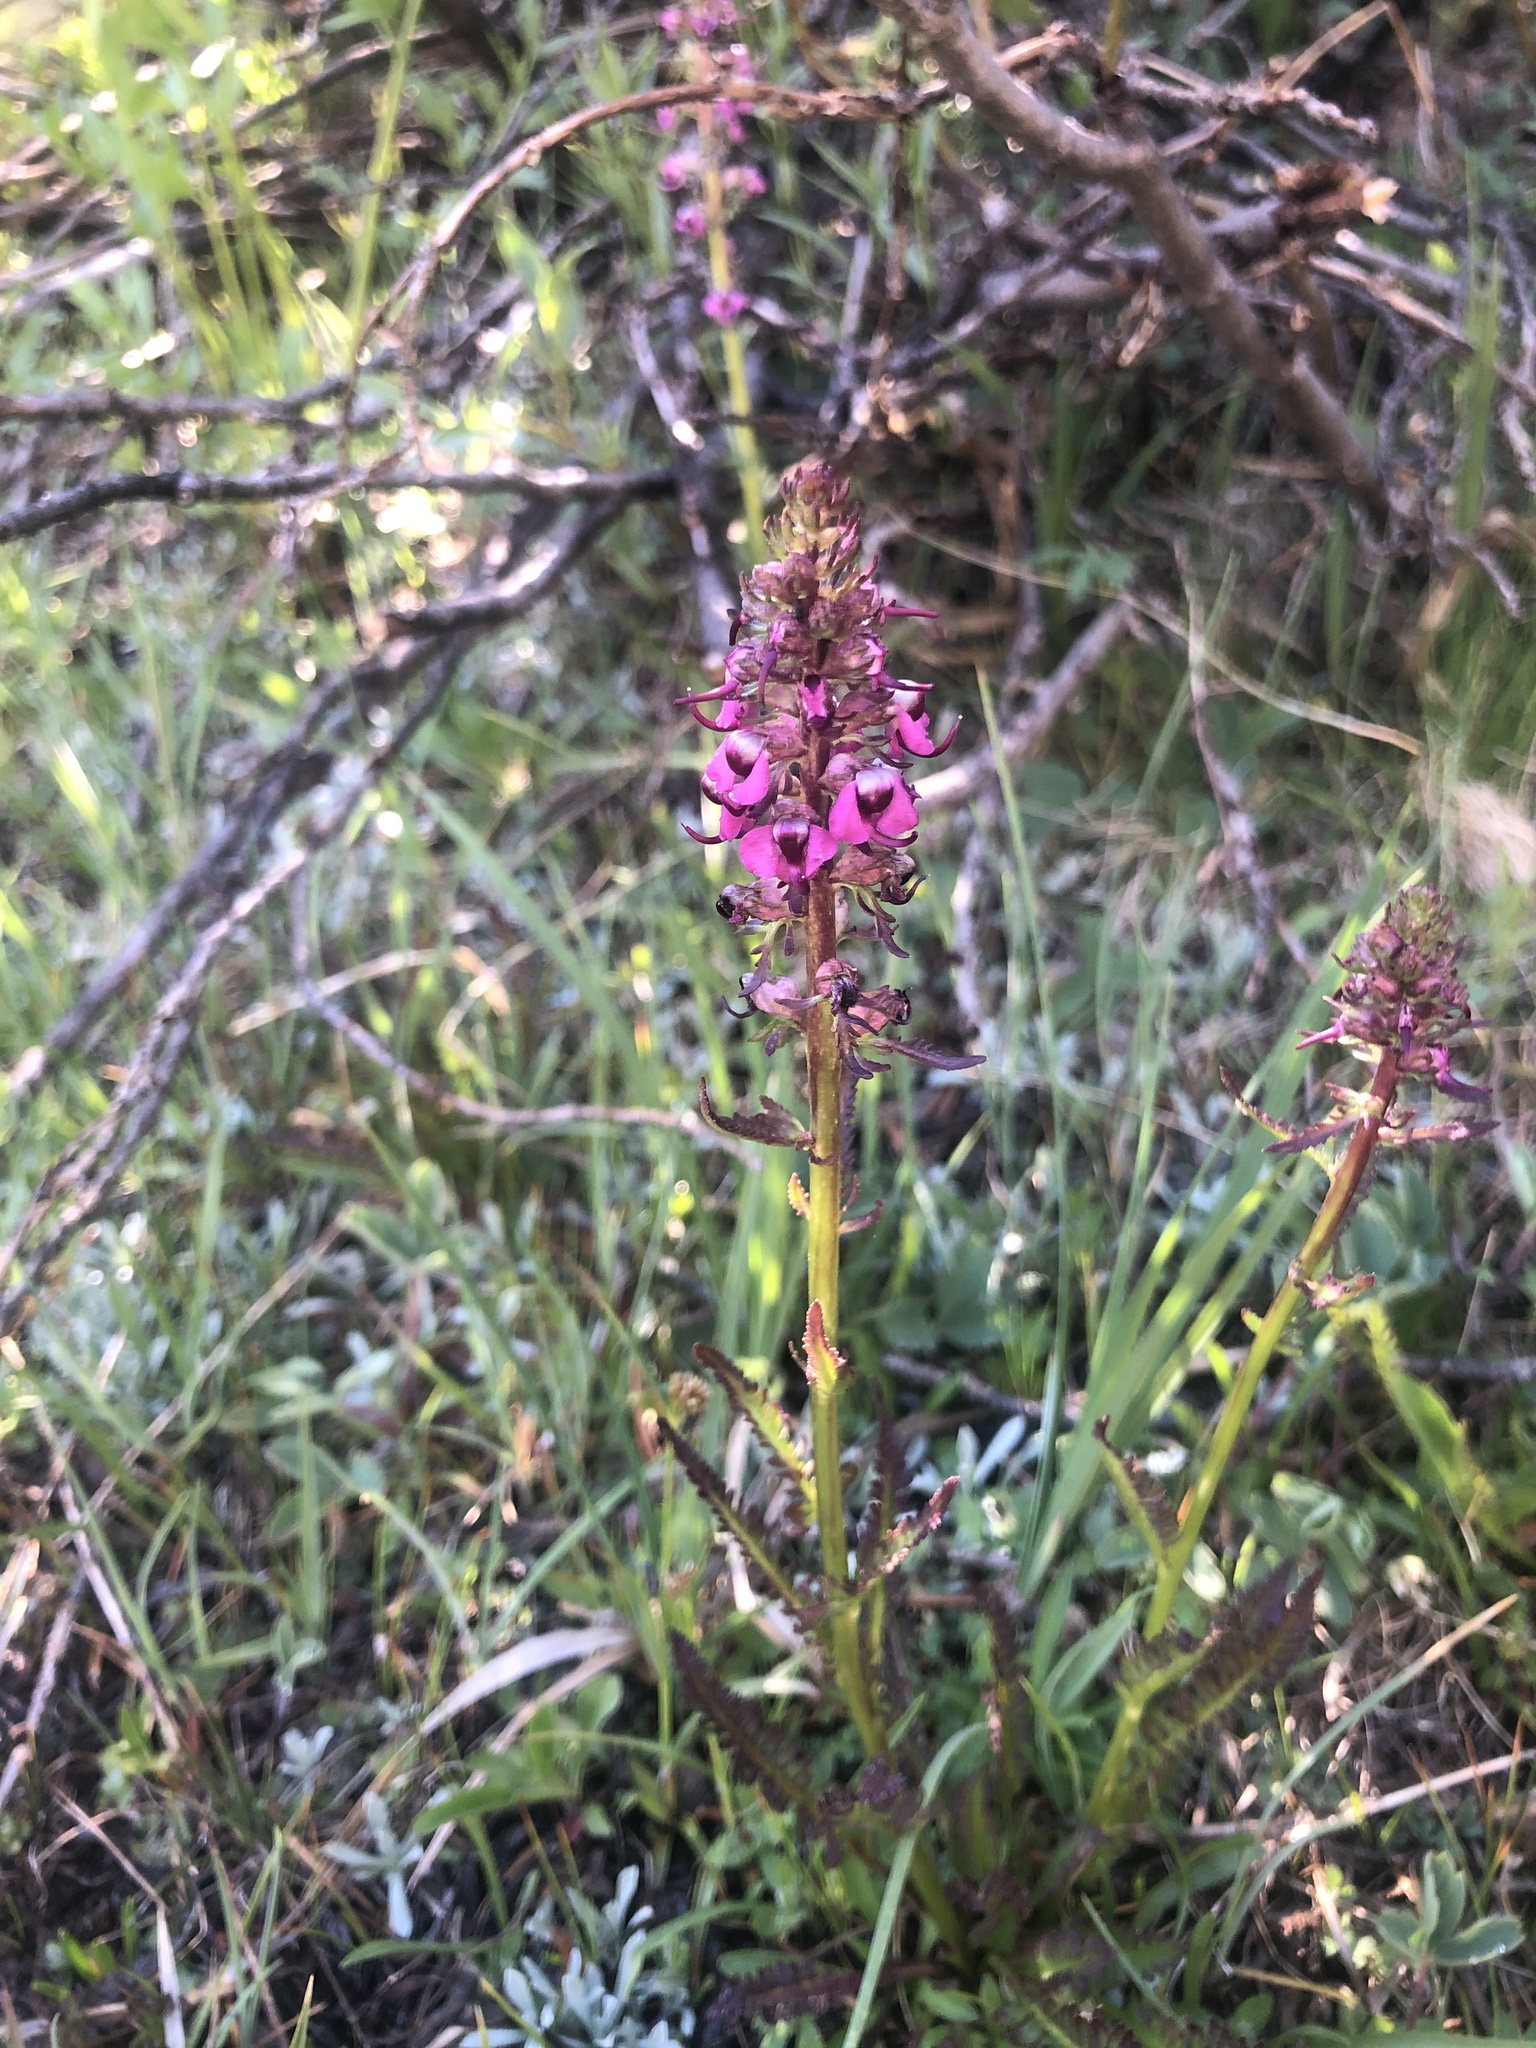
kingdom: Plantae
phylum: Tracheophyta
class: Magnoliopsida
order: Lamiales
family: Orobanchaceae
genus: Pedicularis
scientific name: Pedicularis groenlandica
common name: Elephant's-head
